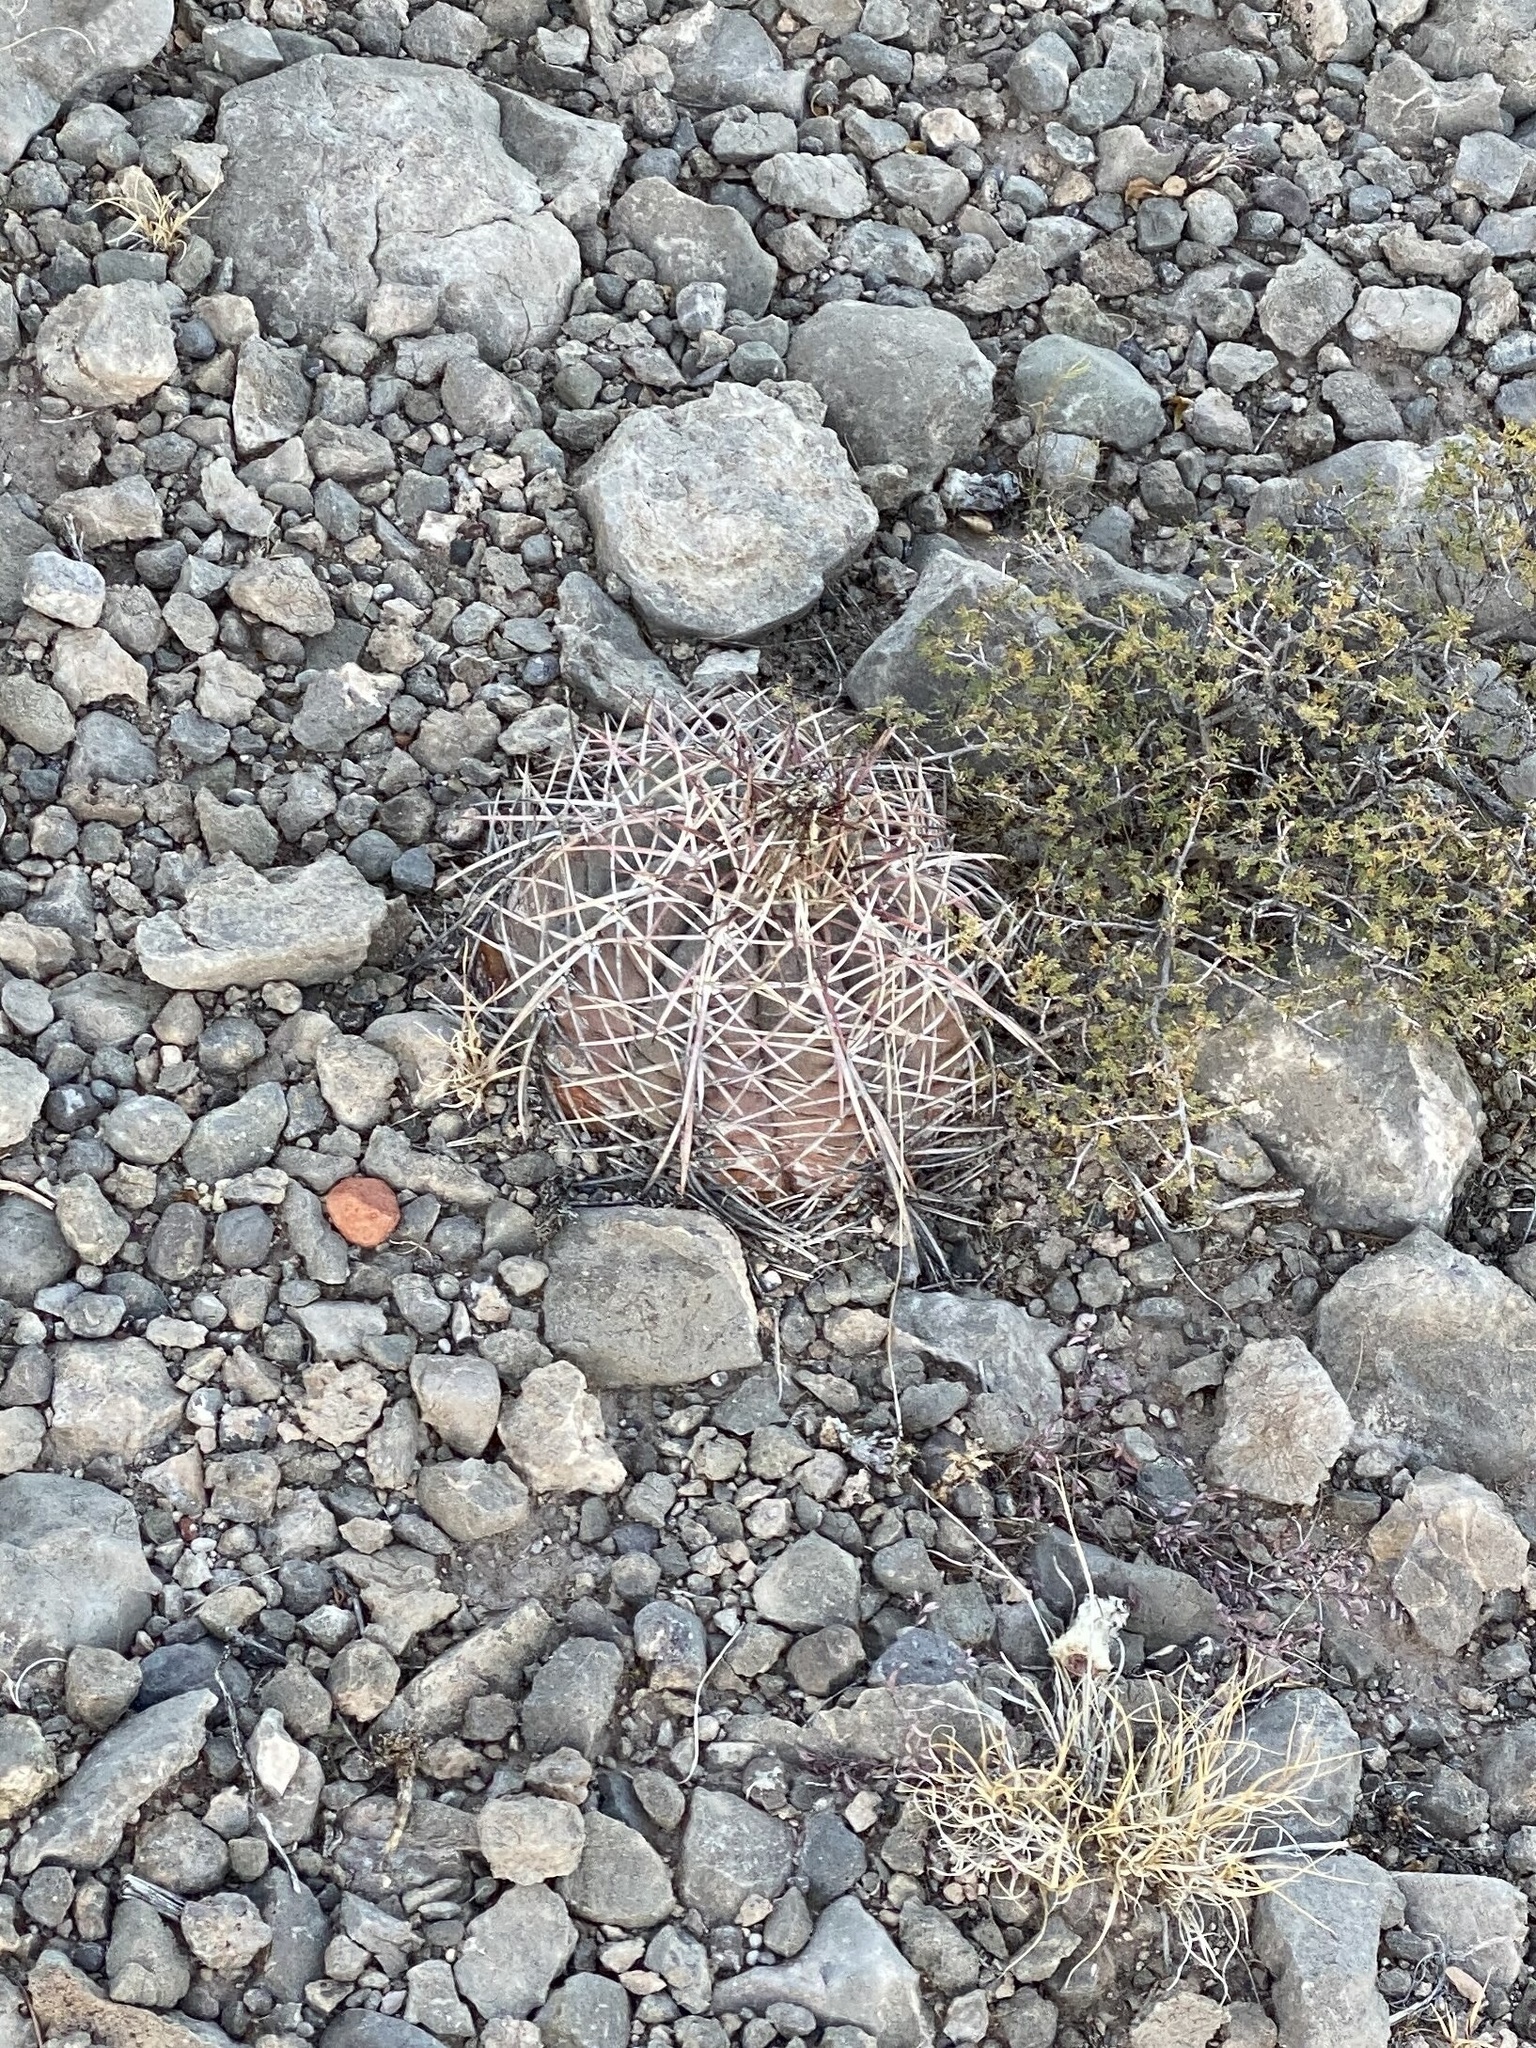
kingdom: Plantae
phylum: Tracheophyta
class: Magnoliopsida
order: Caryophyllales
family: Cactaceae
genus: Echinocactus
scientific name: Echinocactus horizonthalonius
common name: Devilshead
